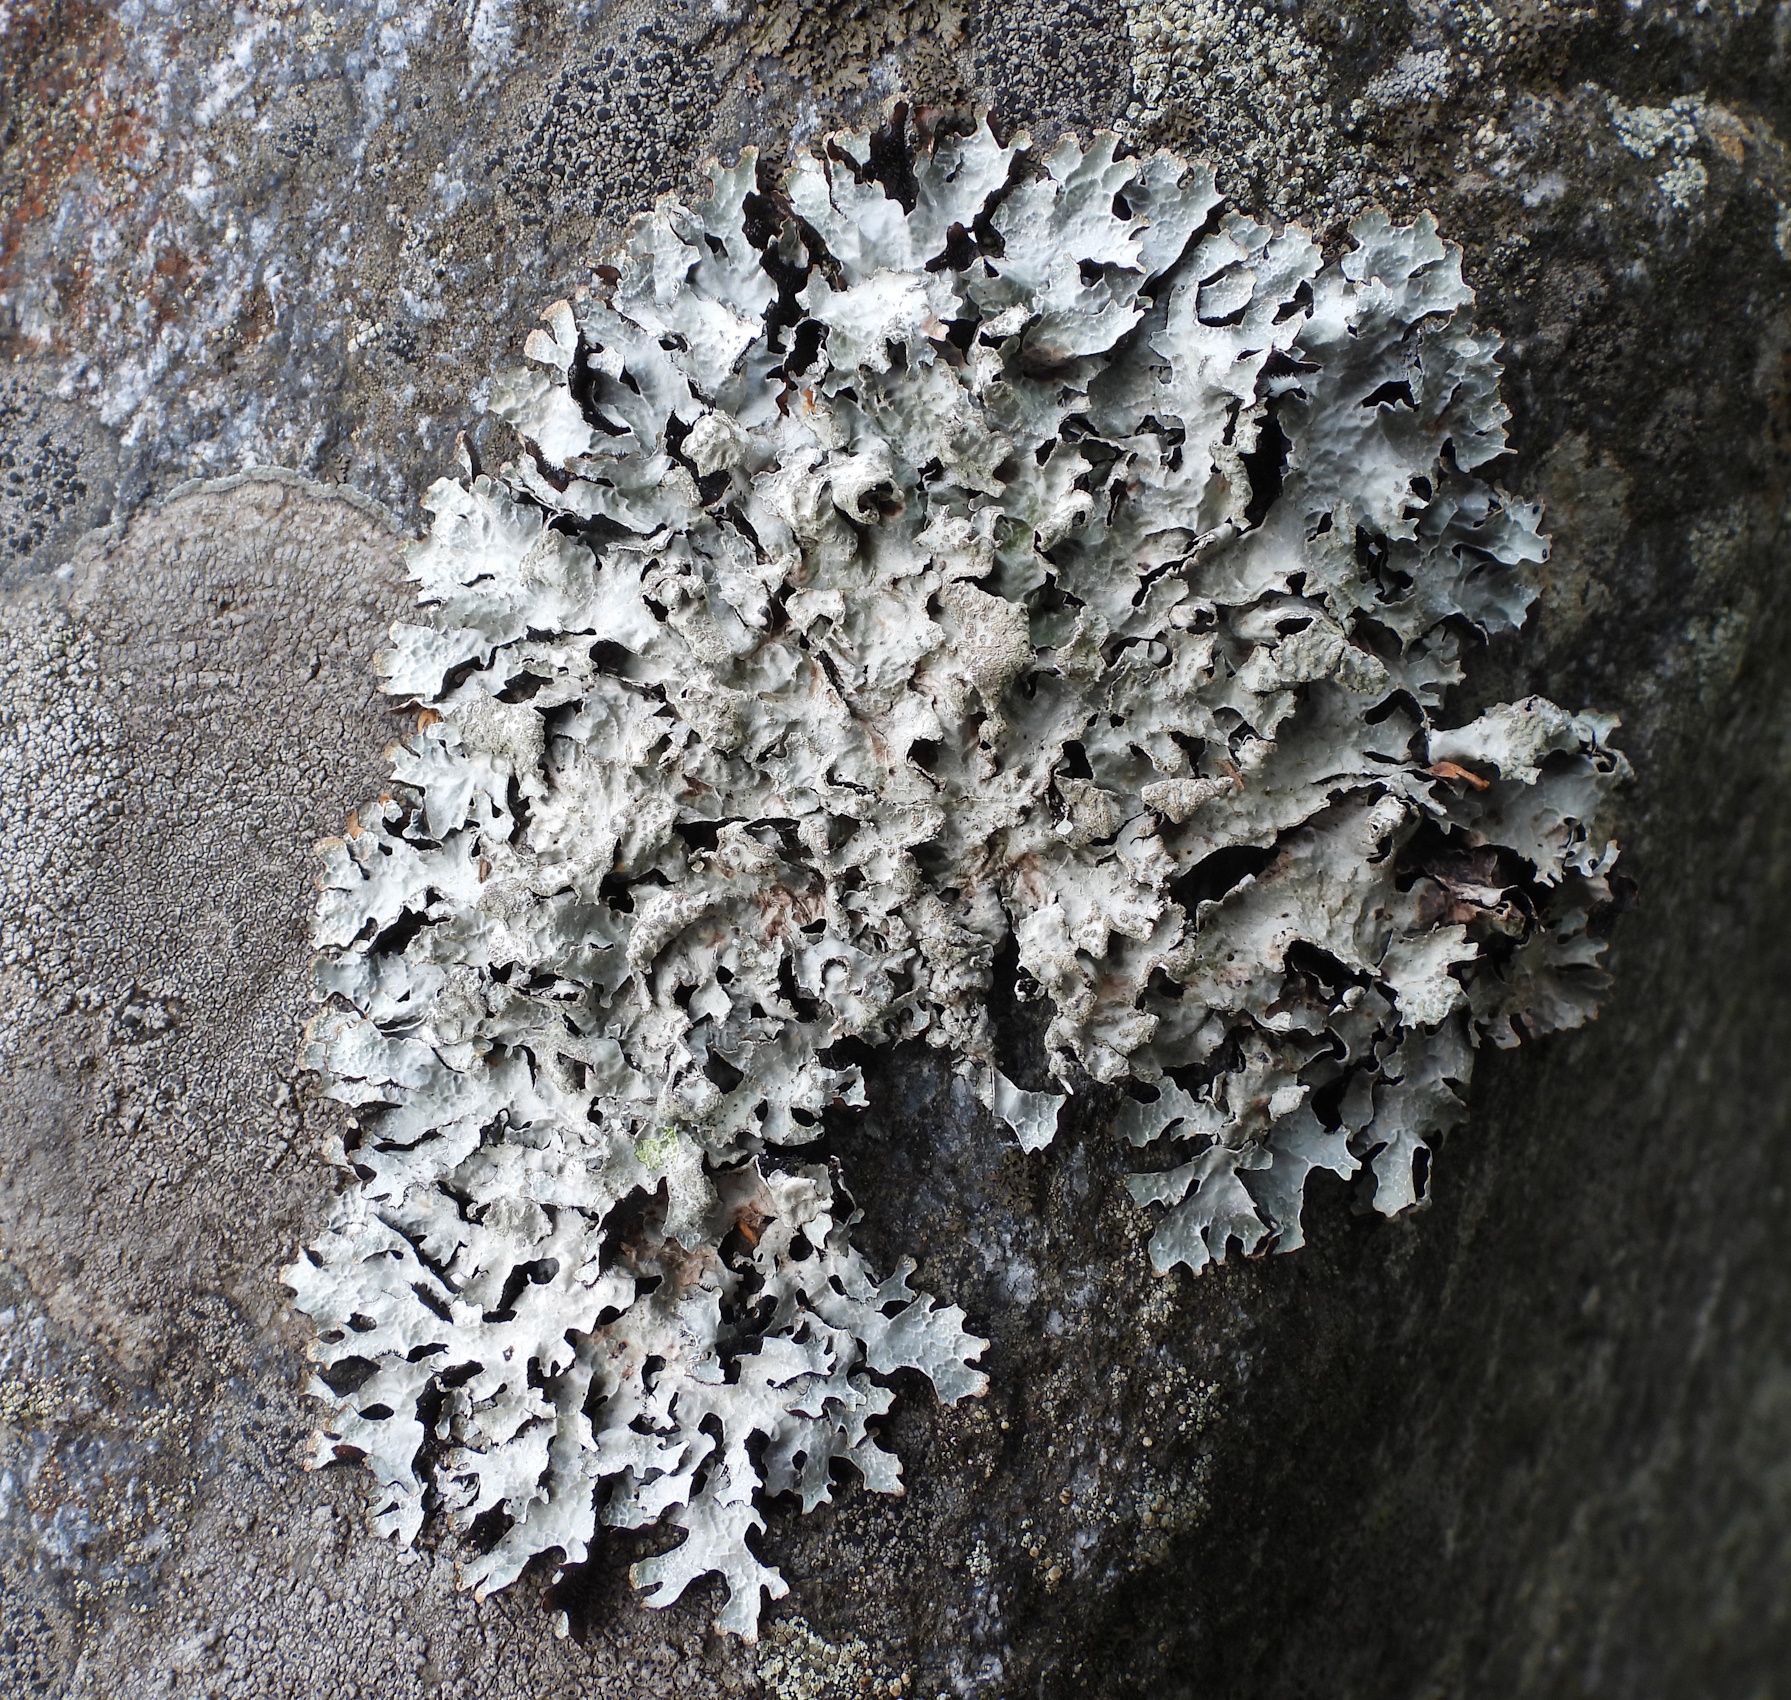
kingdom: Fungi
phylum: Ascomycota
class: Lecanoromycetes
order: Lecanorales
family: Parmeliaceae
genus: Parmelia
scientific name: Parmelia sulcata
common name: Netted shield lichen
